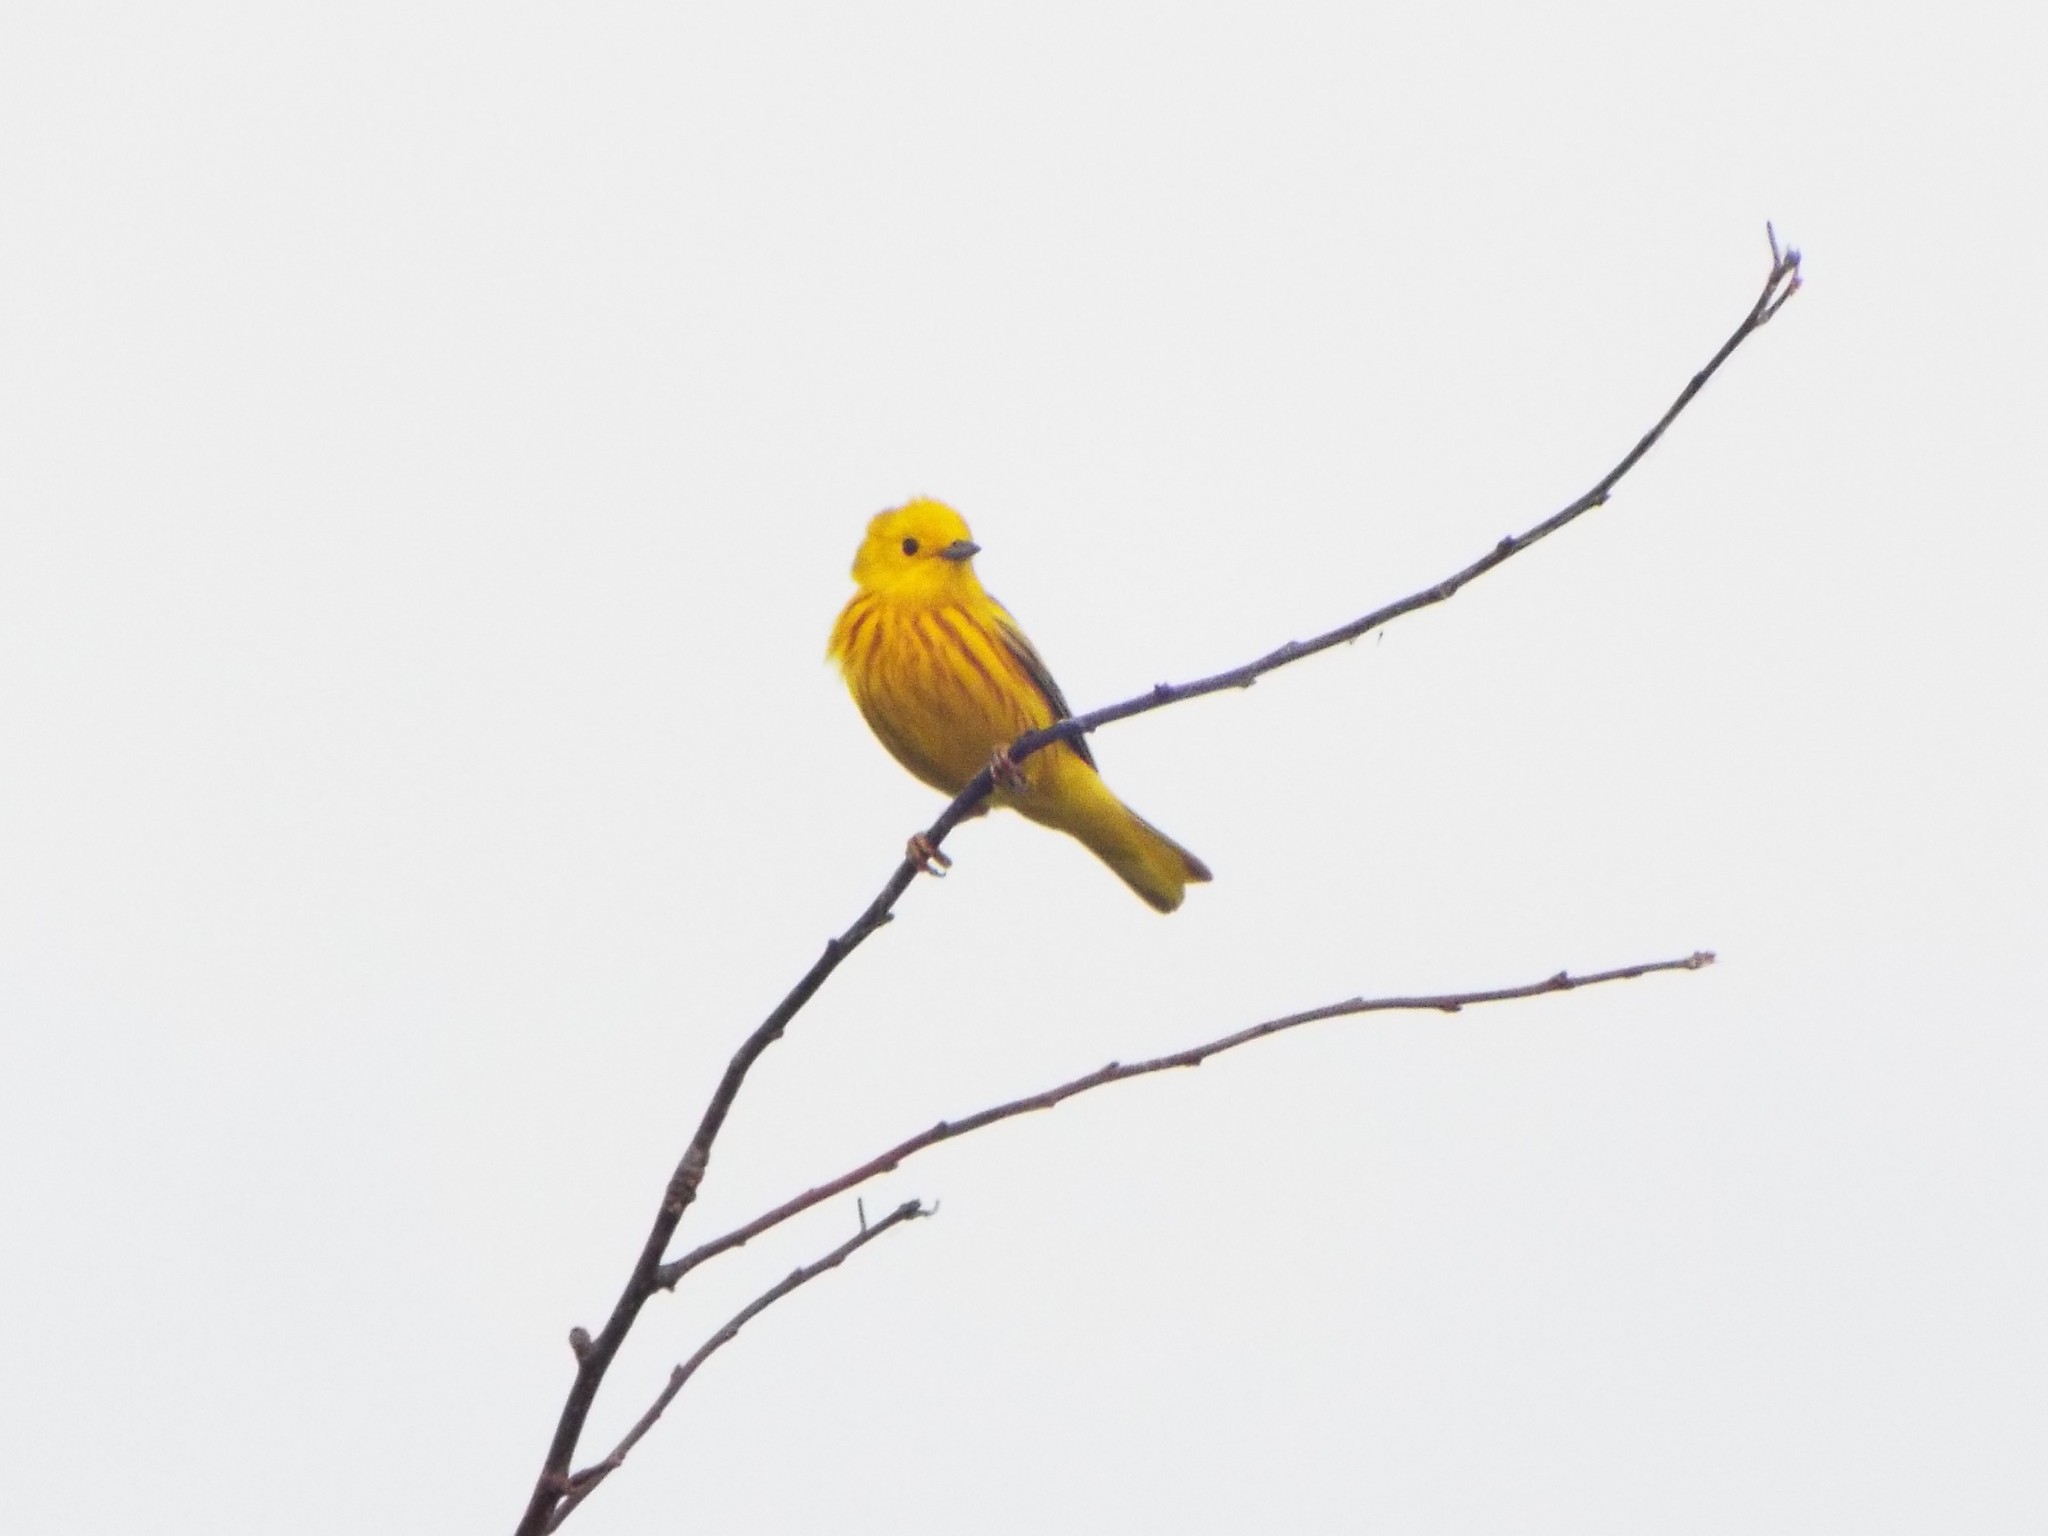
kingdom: Animalia
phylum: Chordata
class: Aves
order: Passeriformes
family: Parulidae
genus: Setophaga
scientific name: Setophaga petechia
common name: Yellow warbler
